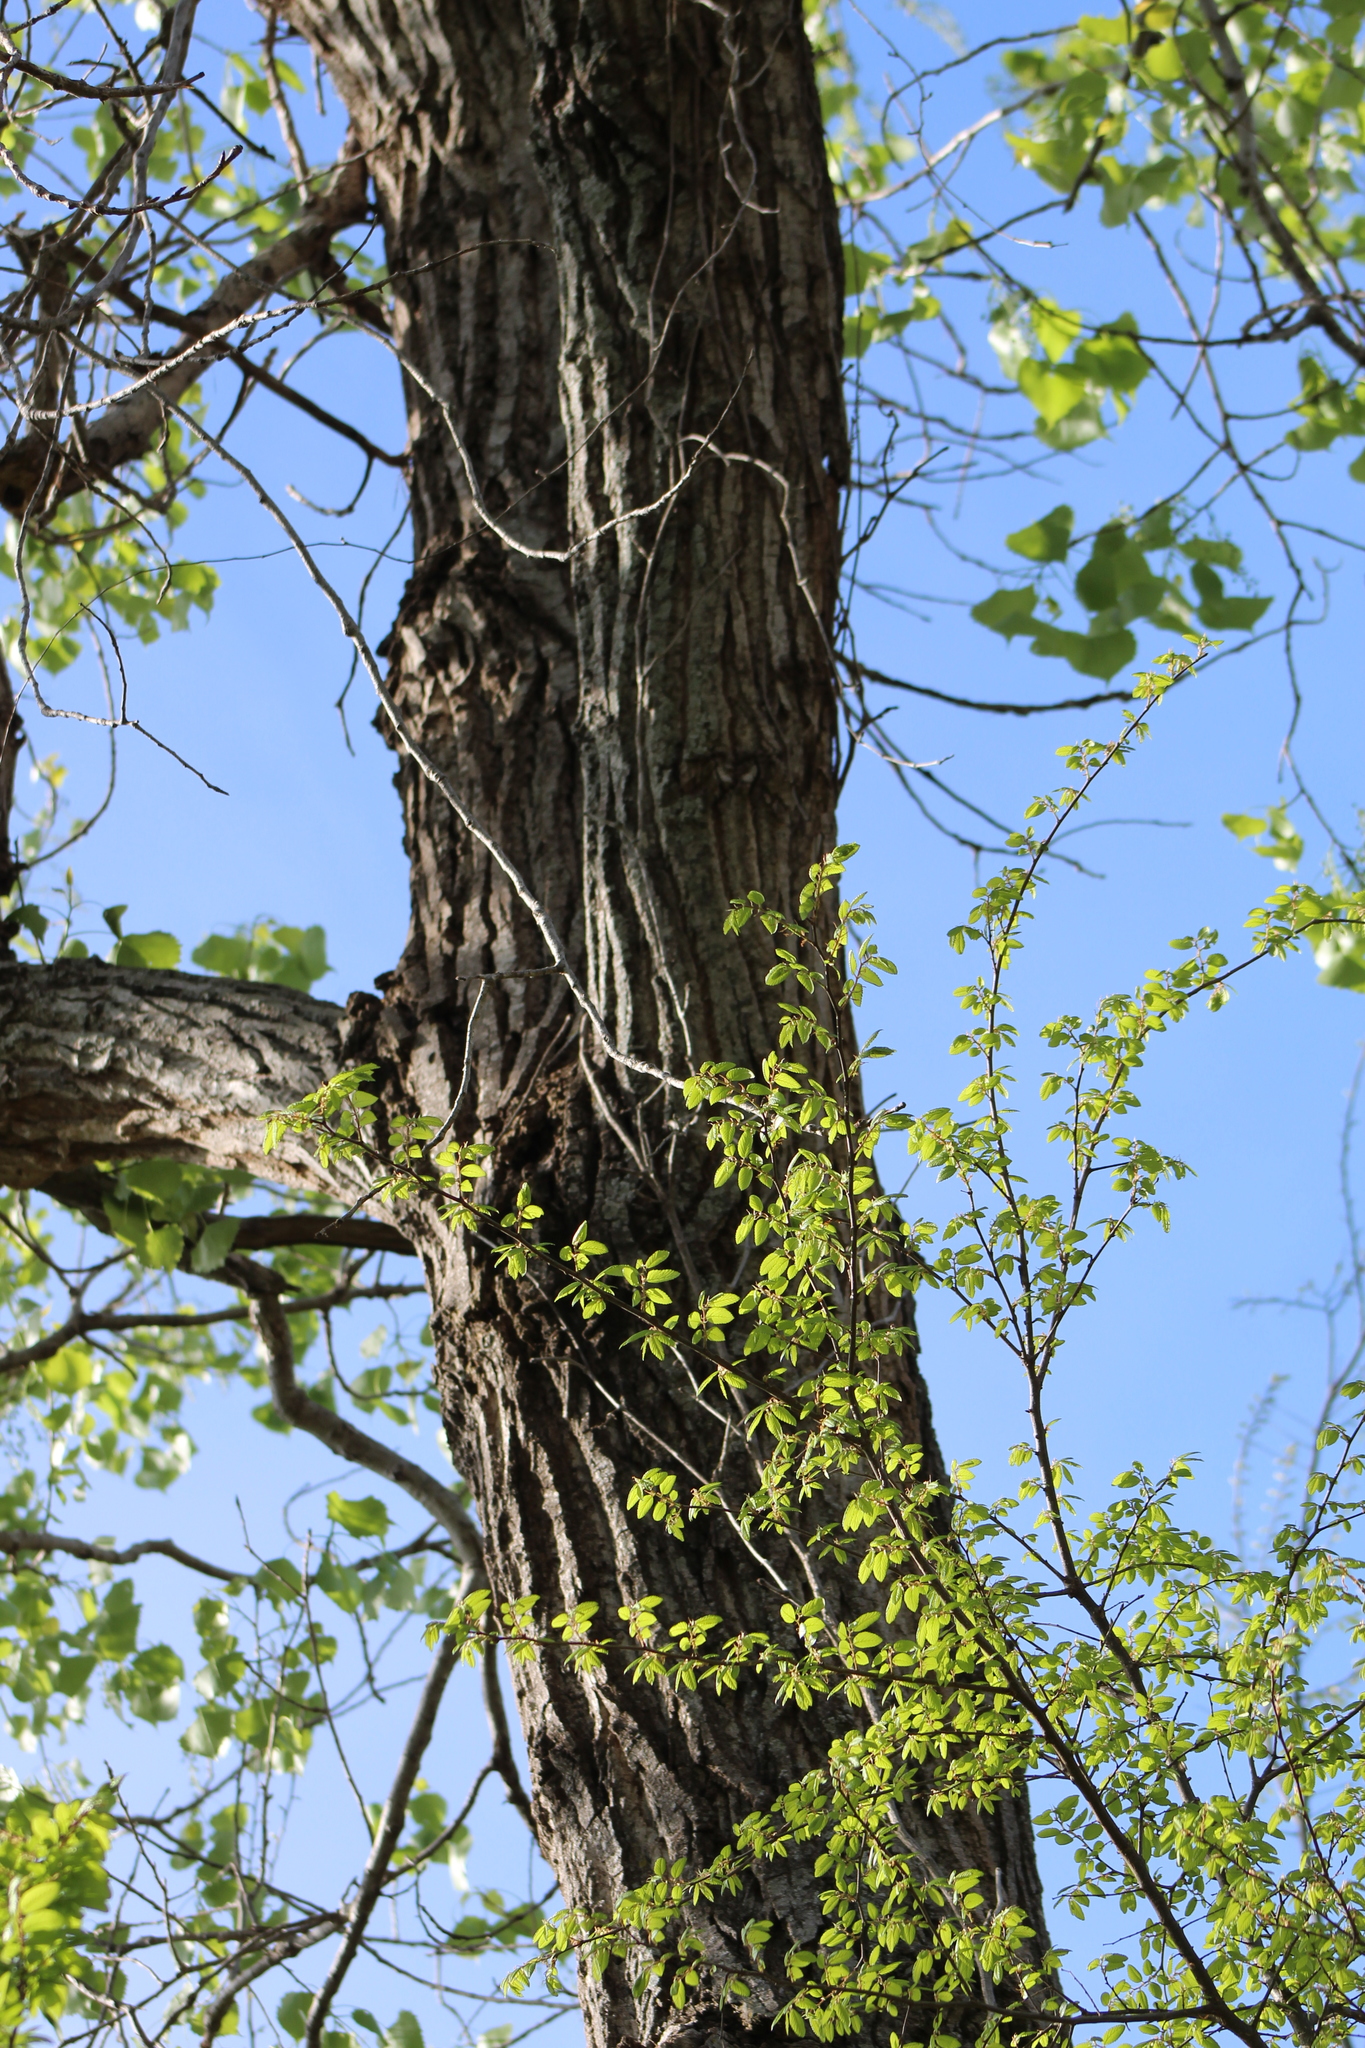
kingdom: Plantae
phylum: Tracheophyta
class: Magnoliopsida
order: Malpighiales
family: Salicaceae
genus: Populus
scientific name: Populus deltoides
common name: Eastern cottonwood
